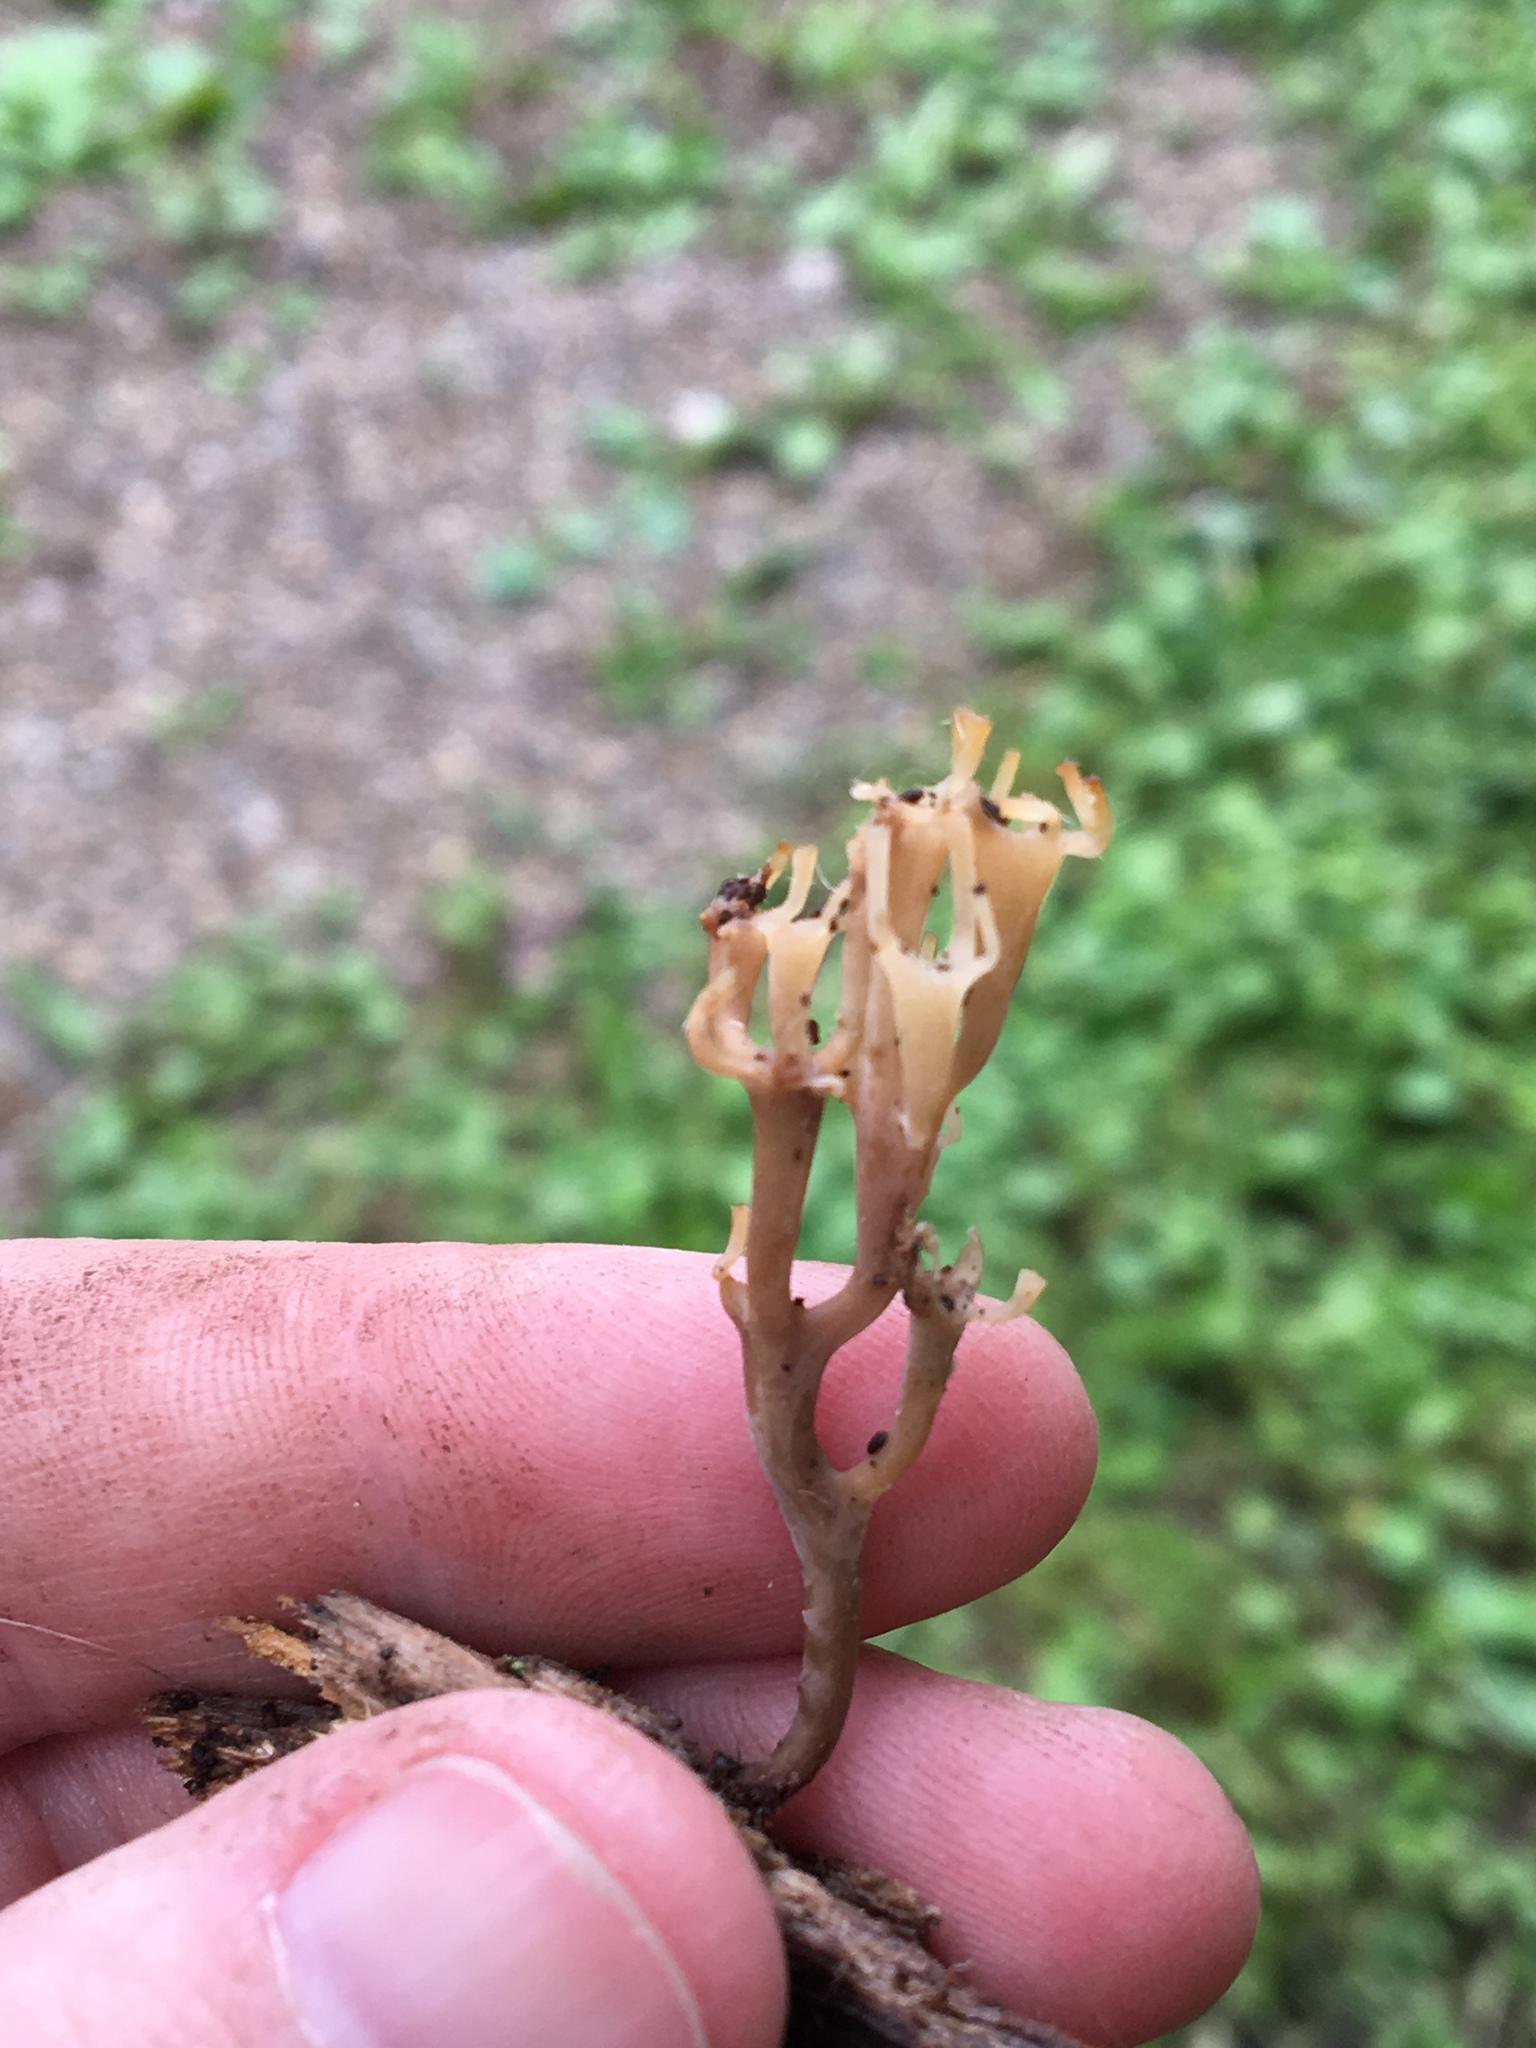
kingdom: Fungi
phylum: Basidiomycota
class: Agaricomycetes
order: Russulales
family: Auriscalpiaceae
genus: Artomyces
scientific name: Artomyces pyxidatus
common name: Crown-tipped coral fungus
